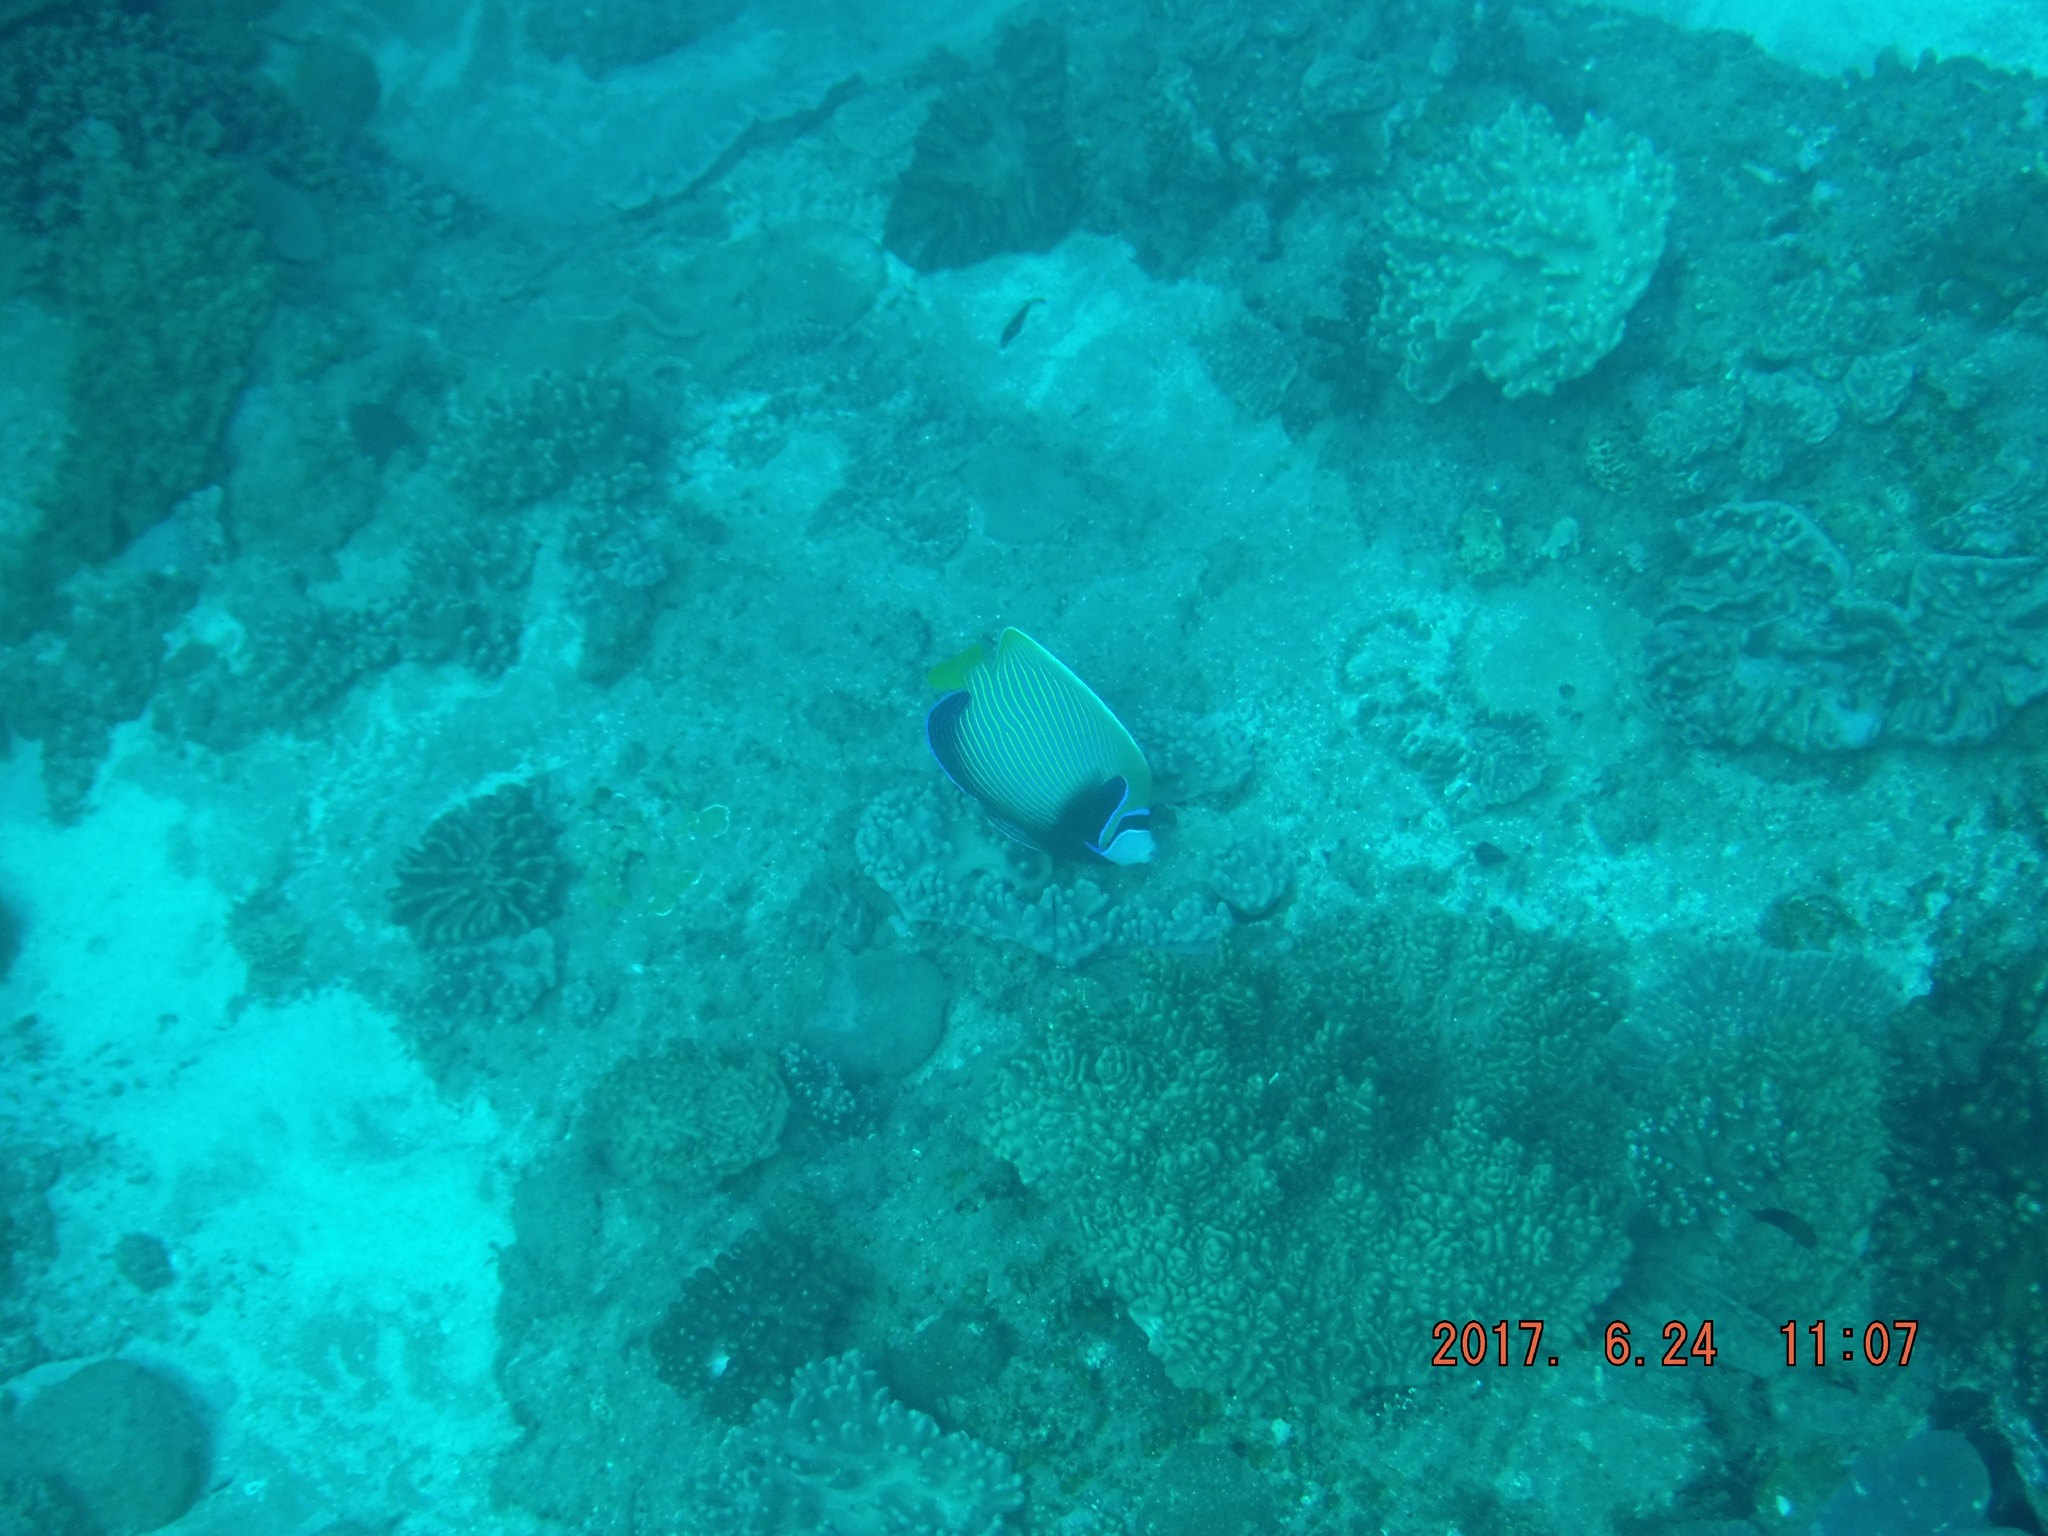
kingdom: Animalia
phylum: Chordata
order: Perciformes
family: Pomacanthidae
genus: Pomacanthus
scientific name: Pomacanthus imperator
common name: Emperor angelfish
